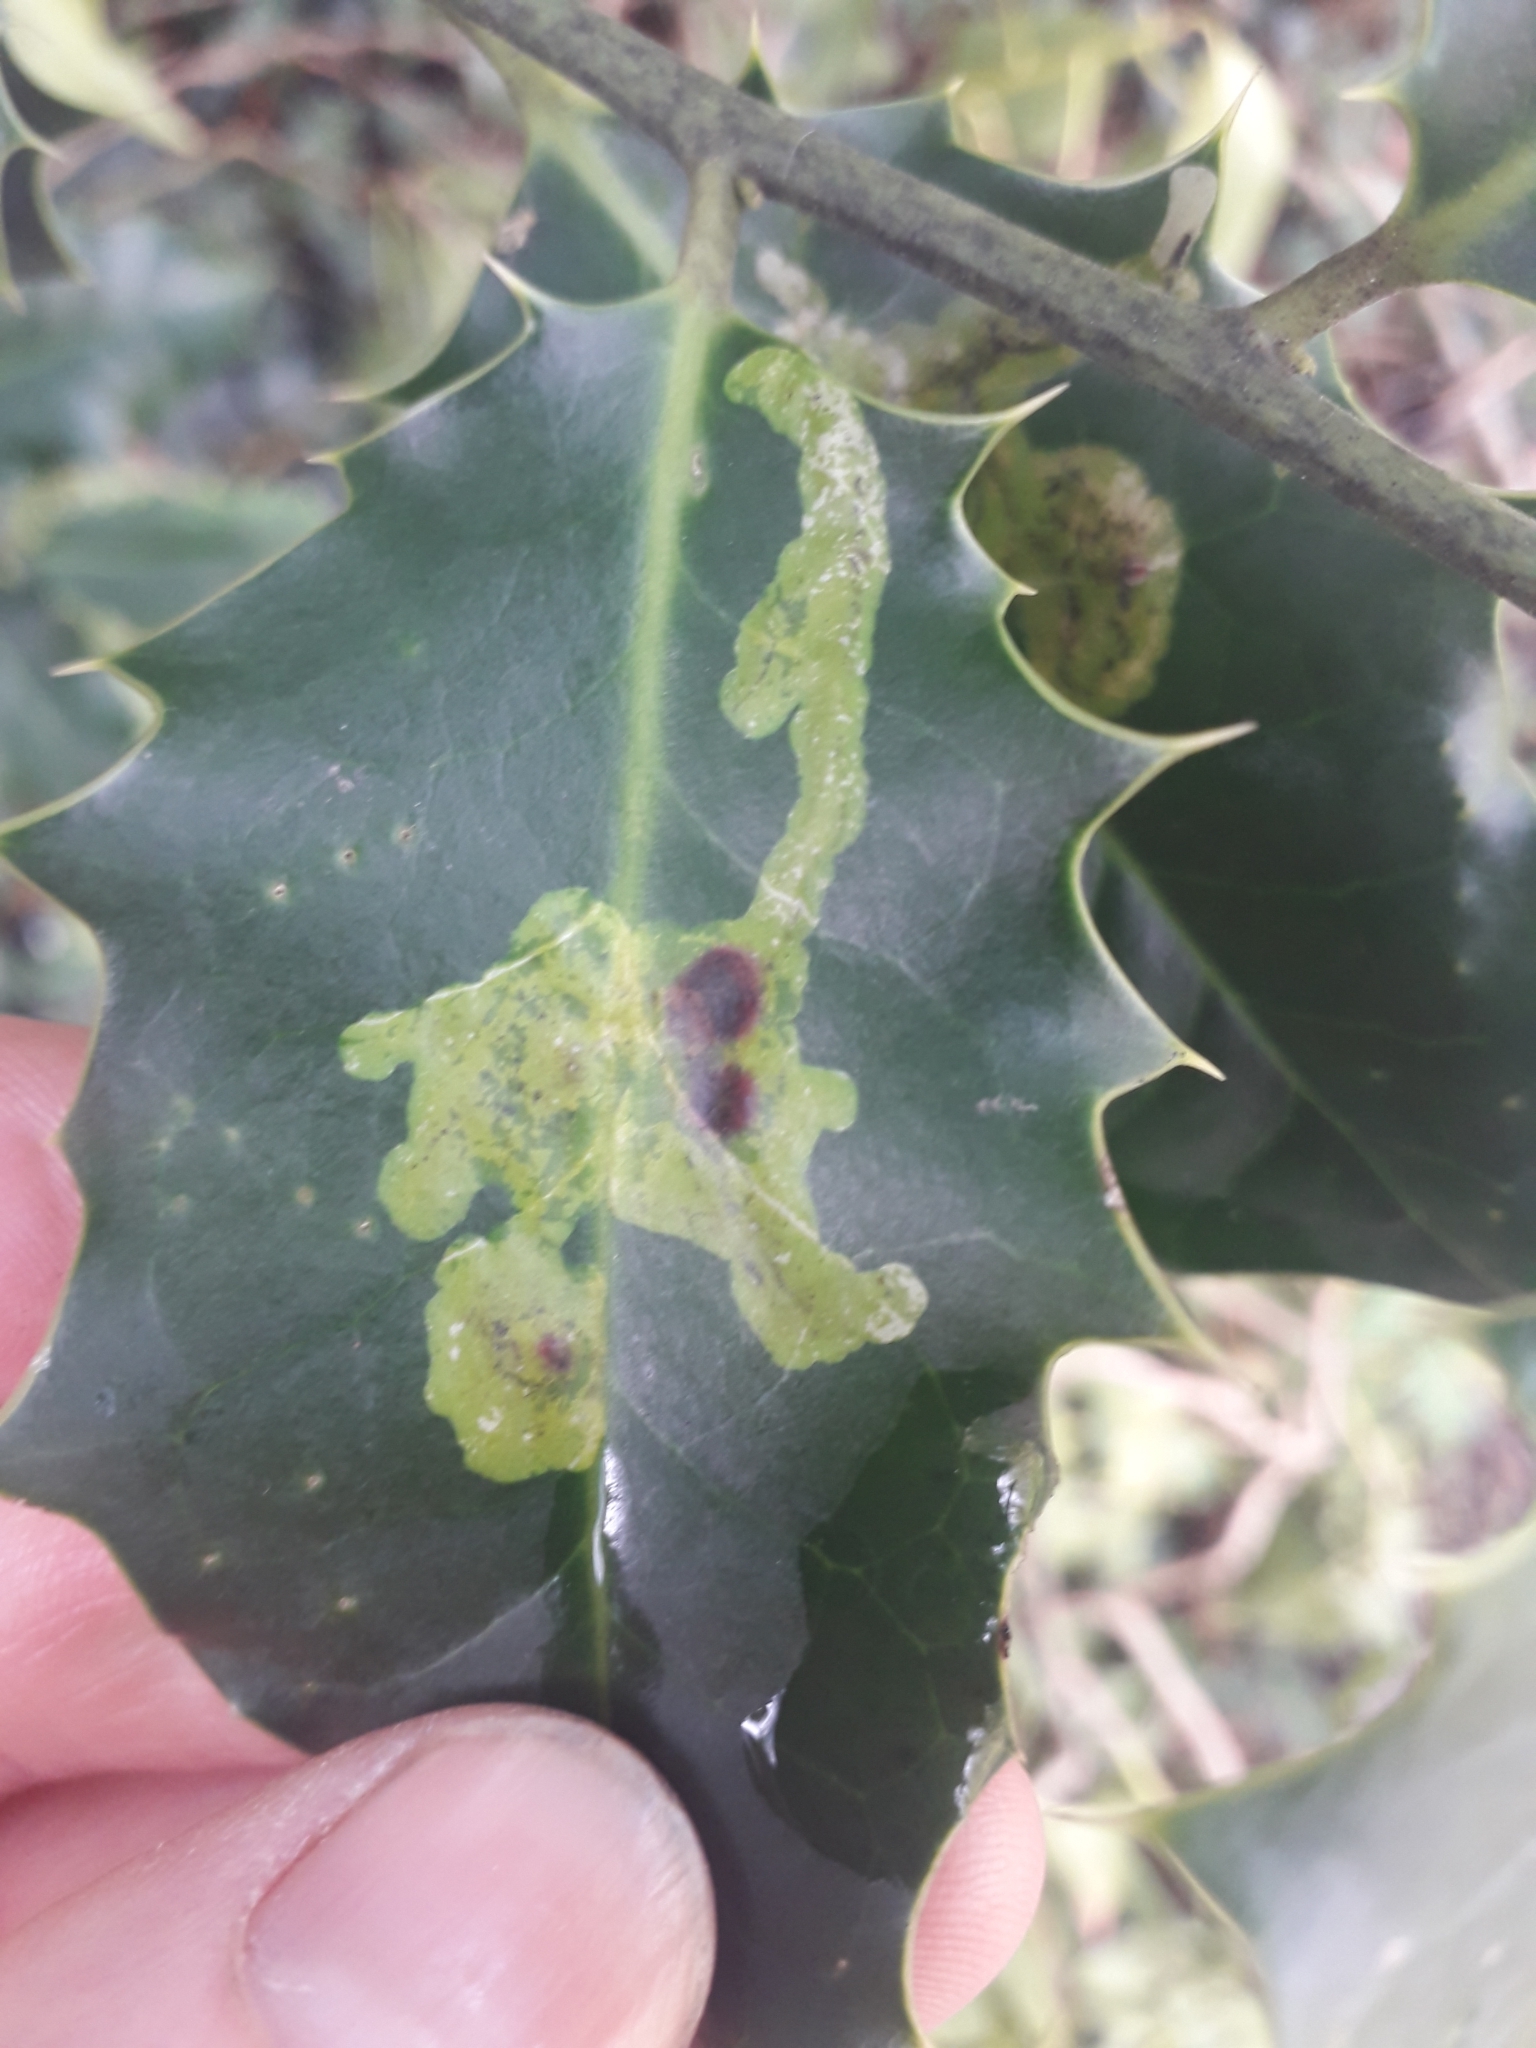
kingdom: Animalia
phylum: Arthropoda
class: Insecta
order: Diptera
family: Agromyzidae
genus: Phytomyza
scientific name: Phytomyza ilicis
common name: Holly leafminer
